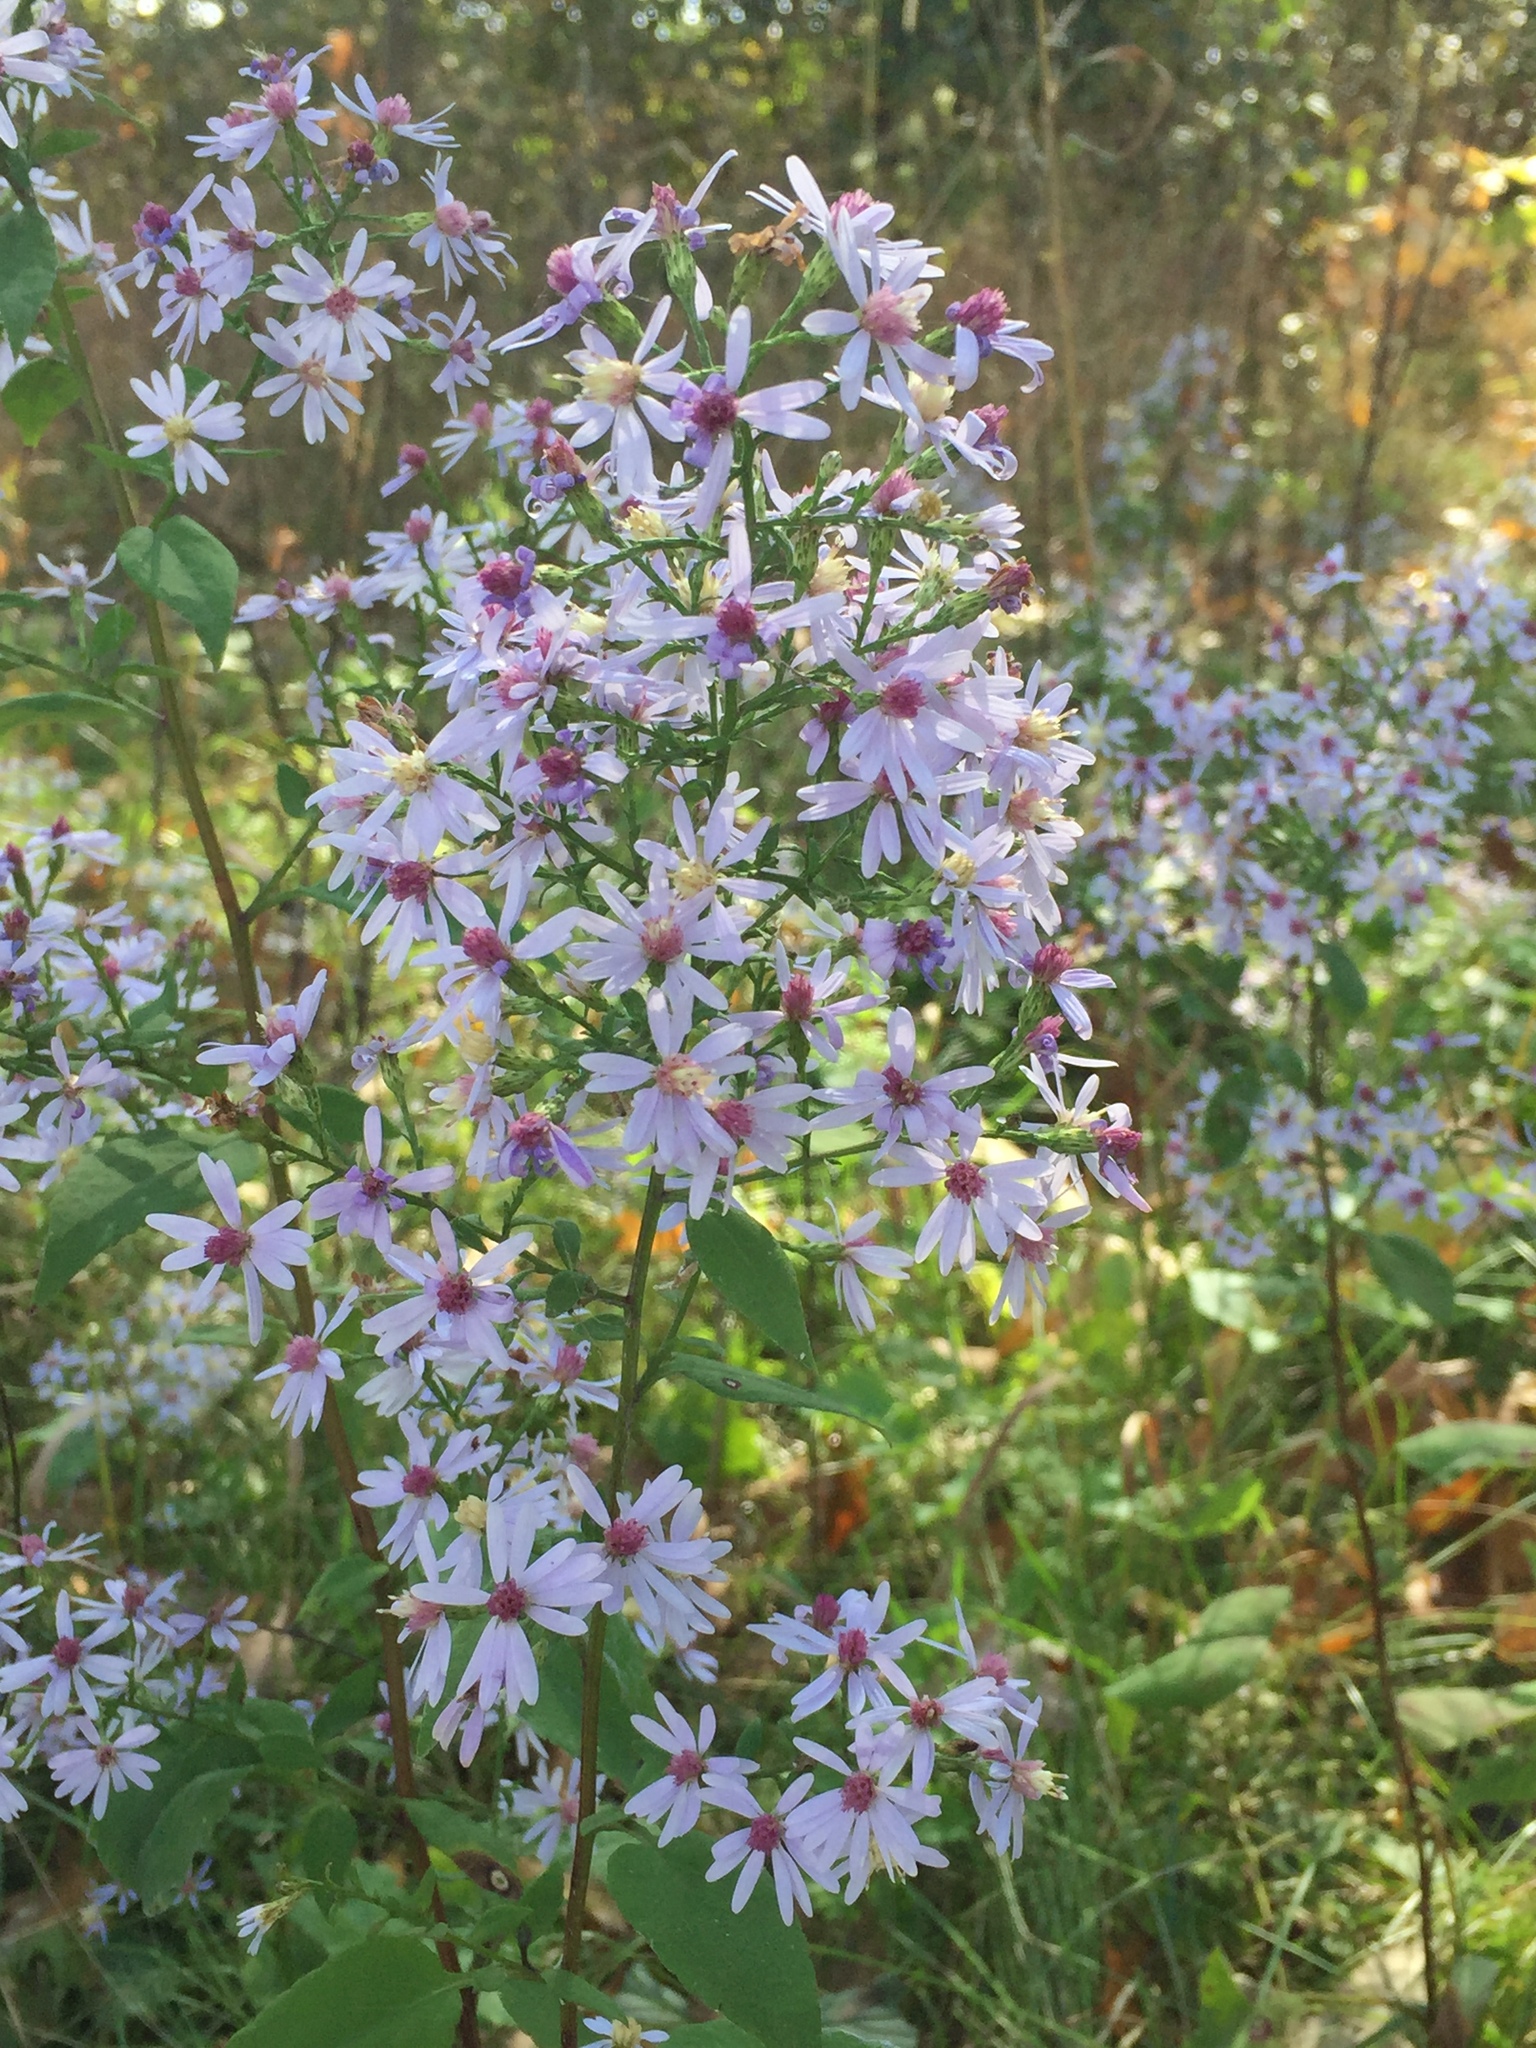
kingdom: Plantae
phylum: Tracheophyta
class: Magnoliopsida
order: Asterales
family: Asteraceae
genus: Symphyotrichum
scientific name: Symphyotrichum cordifolium
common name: Beeweed
